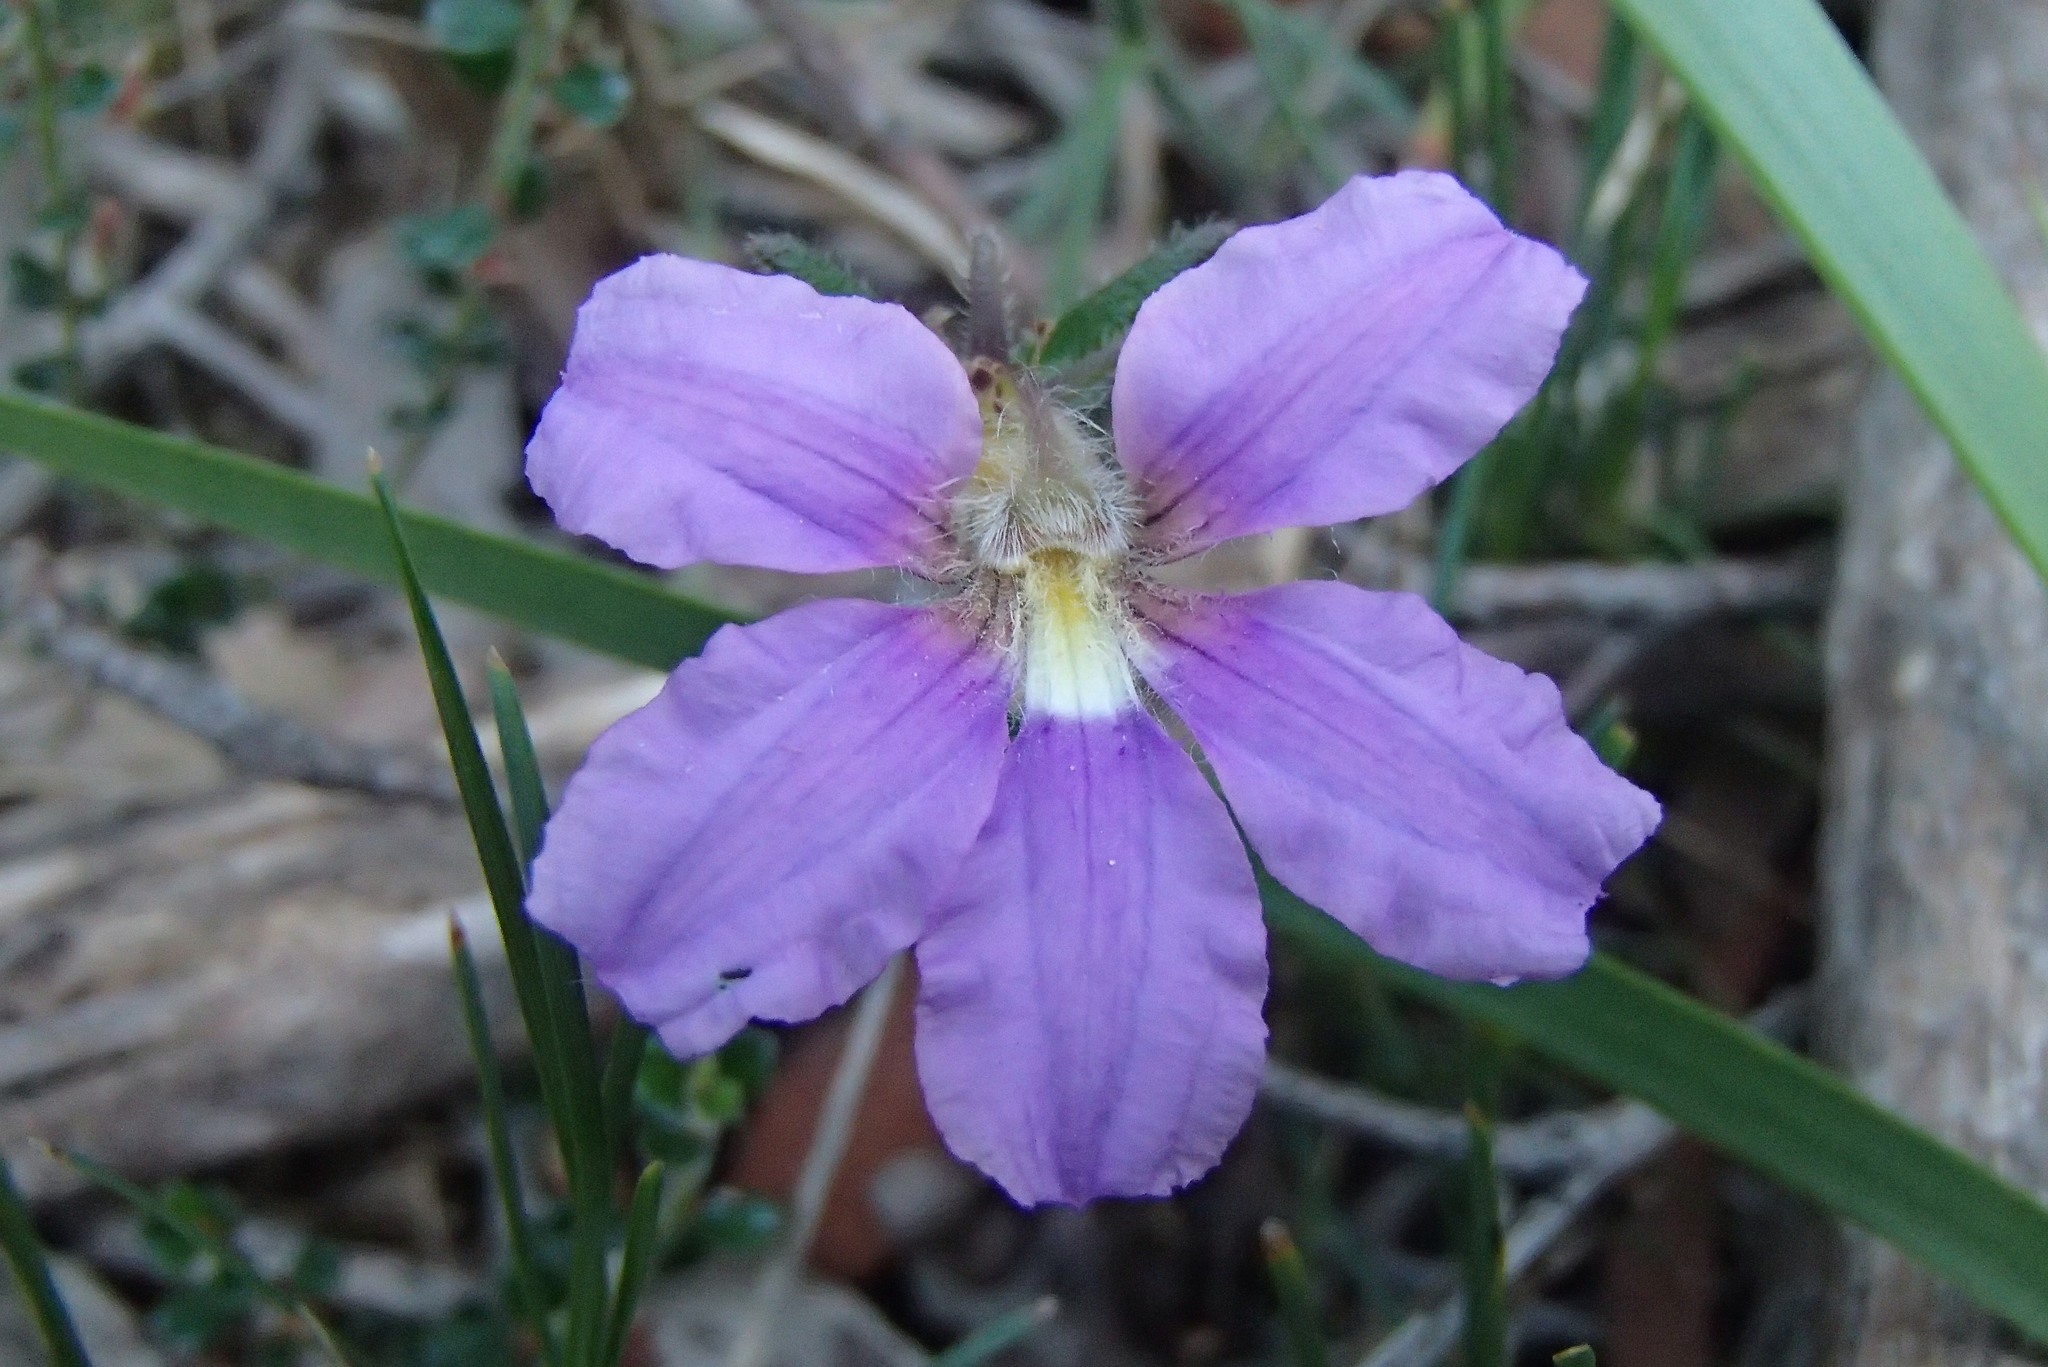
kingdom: Plantae
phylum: Tracheophyta
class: Magnoliopsida
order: Asterales
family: Goodeniaceae
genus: Scaevola
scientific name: Scaevola ramosissima
